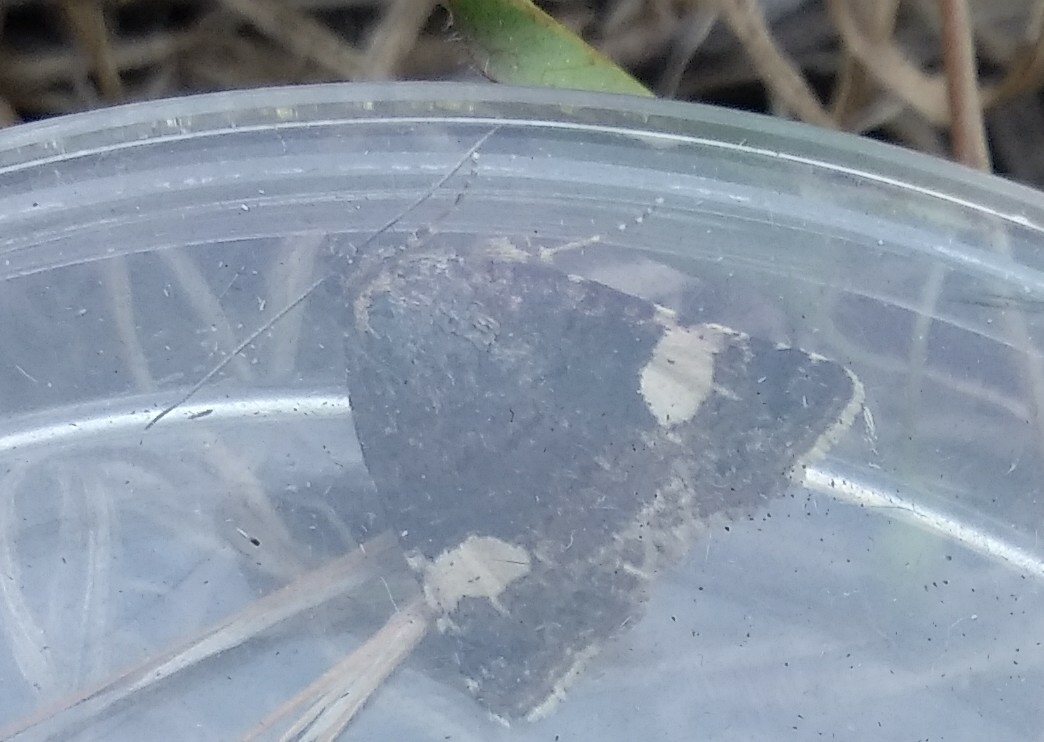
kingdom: Animalia
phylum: Arthropoda
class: Insecta
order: Lepidoptera
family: Erebidae
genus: Tyta
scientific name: Tyta luctuosa
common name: Four-spotted
